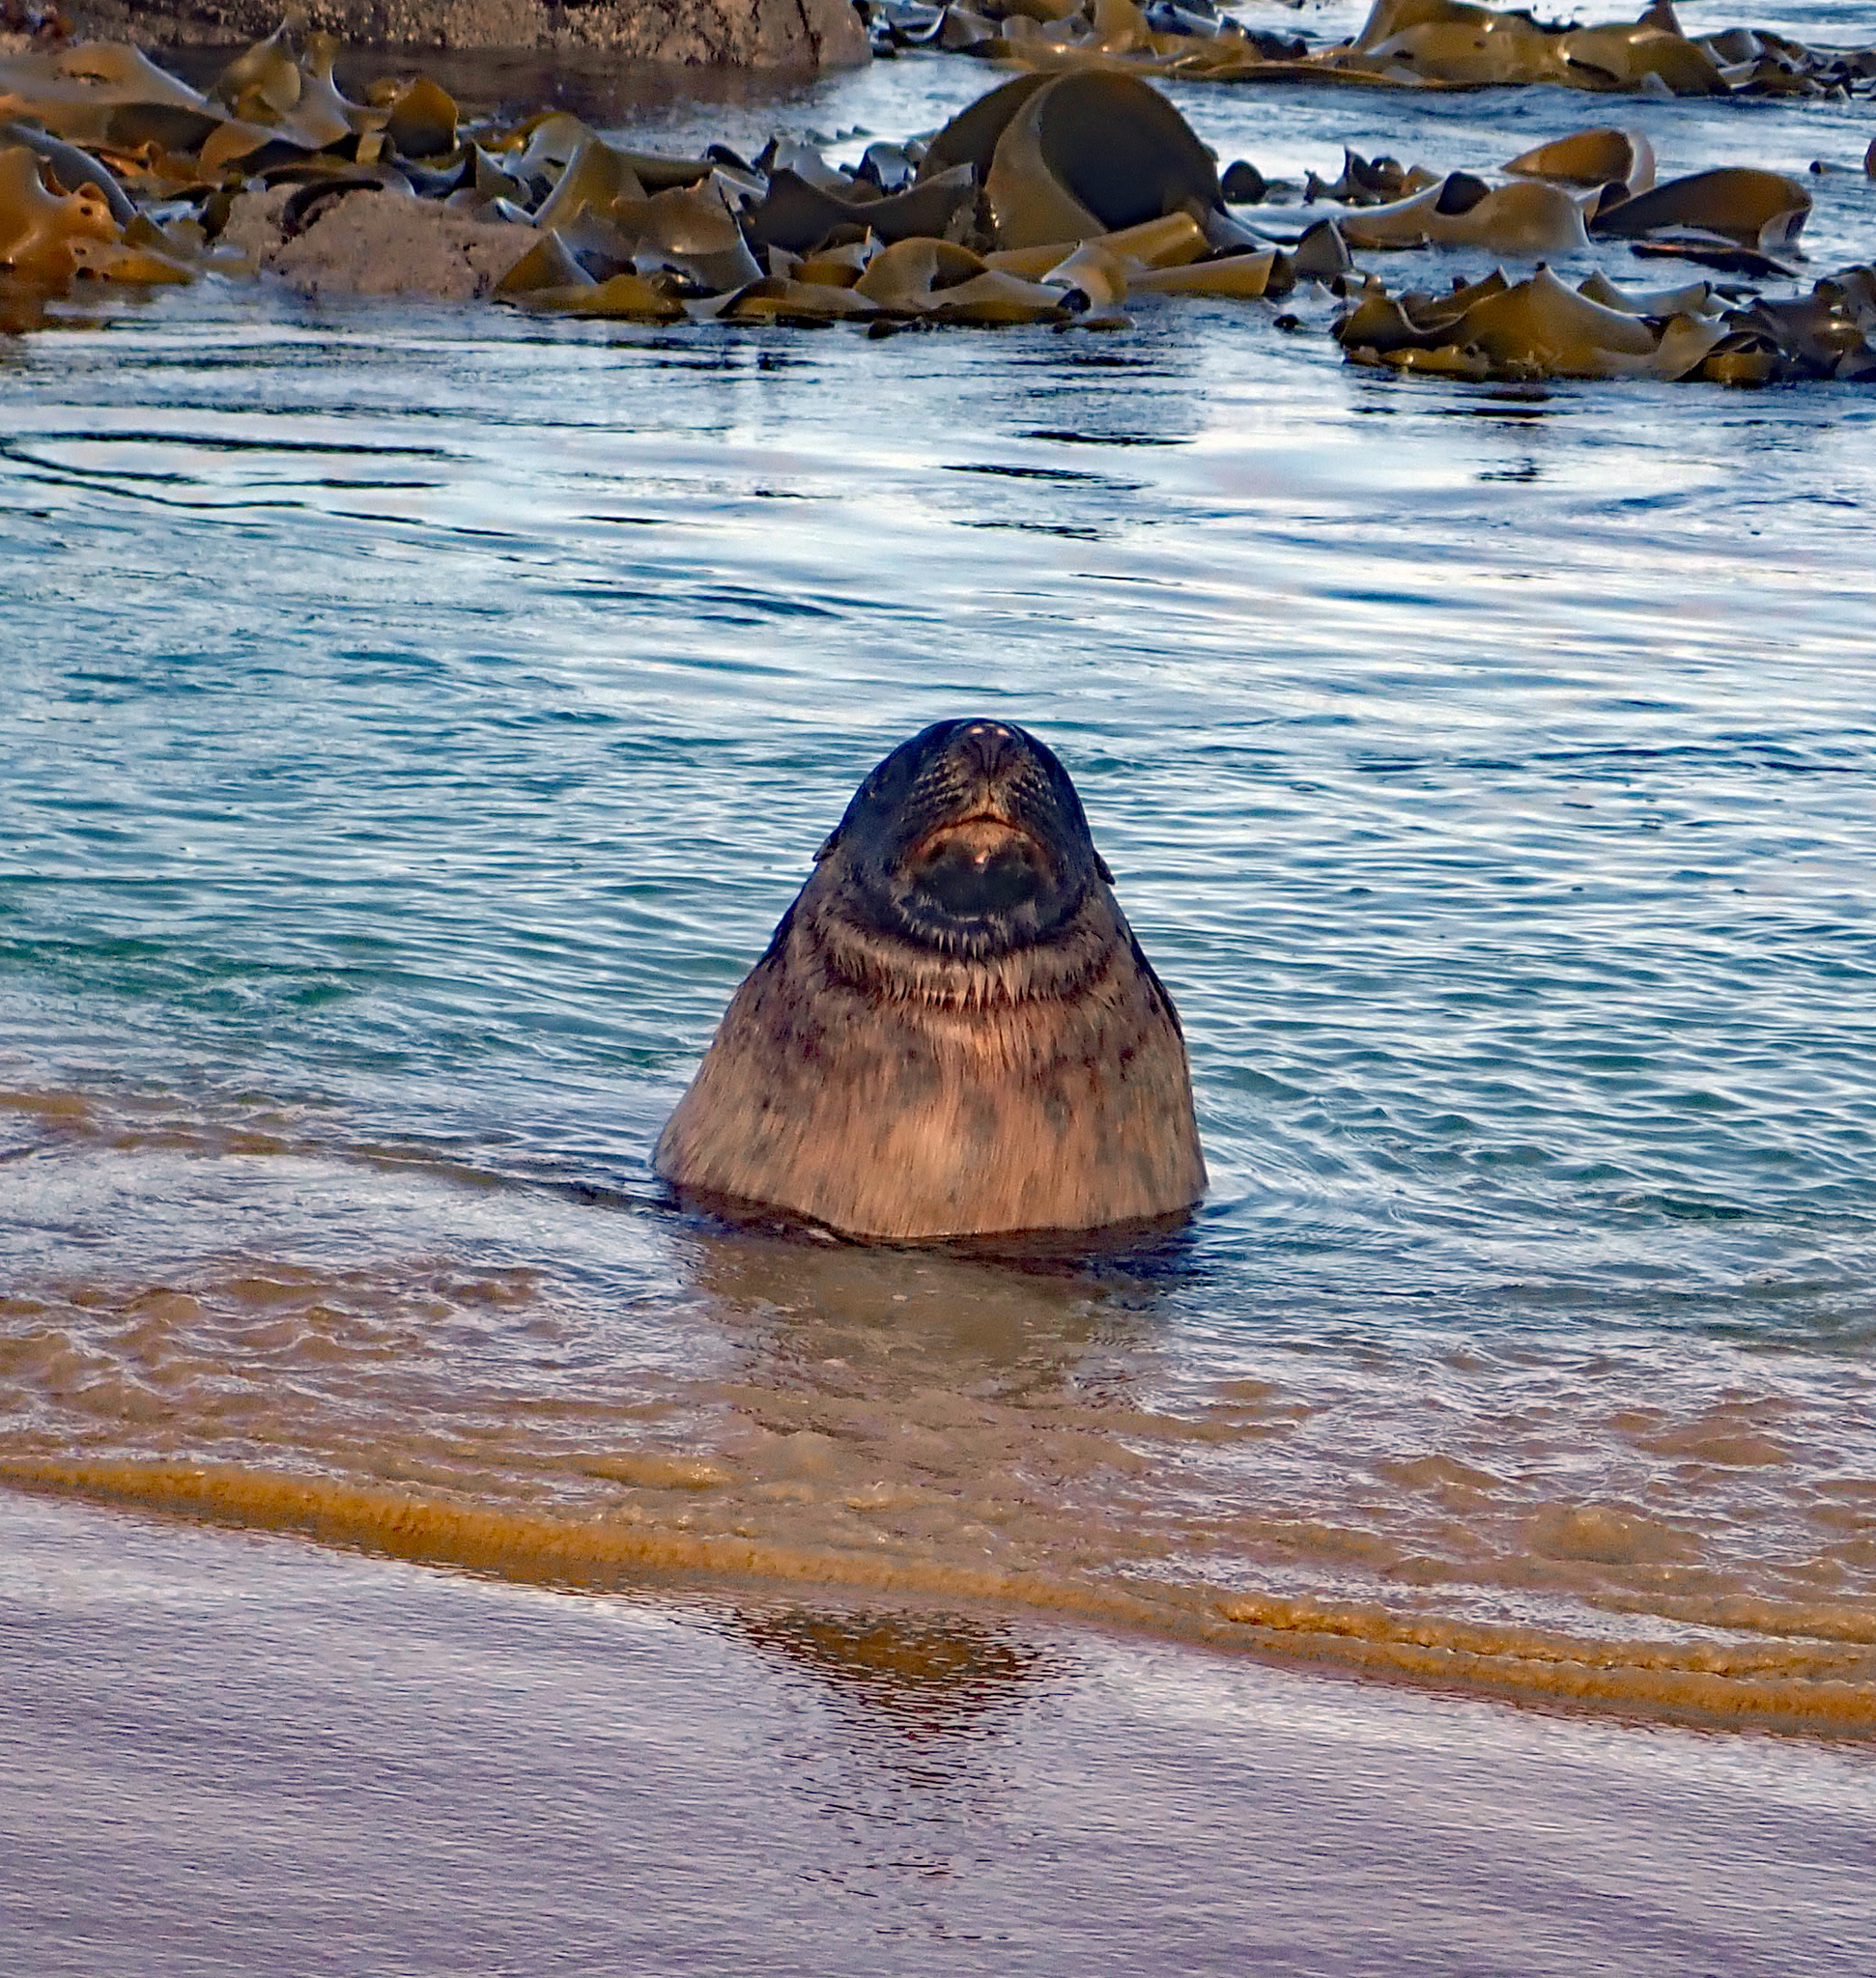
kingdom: Animalia
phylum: Chordata
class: Mammalia
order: Carnivora
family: Otariidae
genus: Phocarctos
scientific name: Phocarctos hookeri
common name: New zealand sea lion
